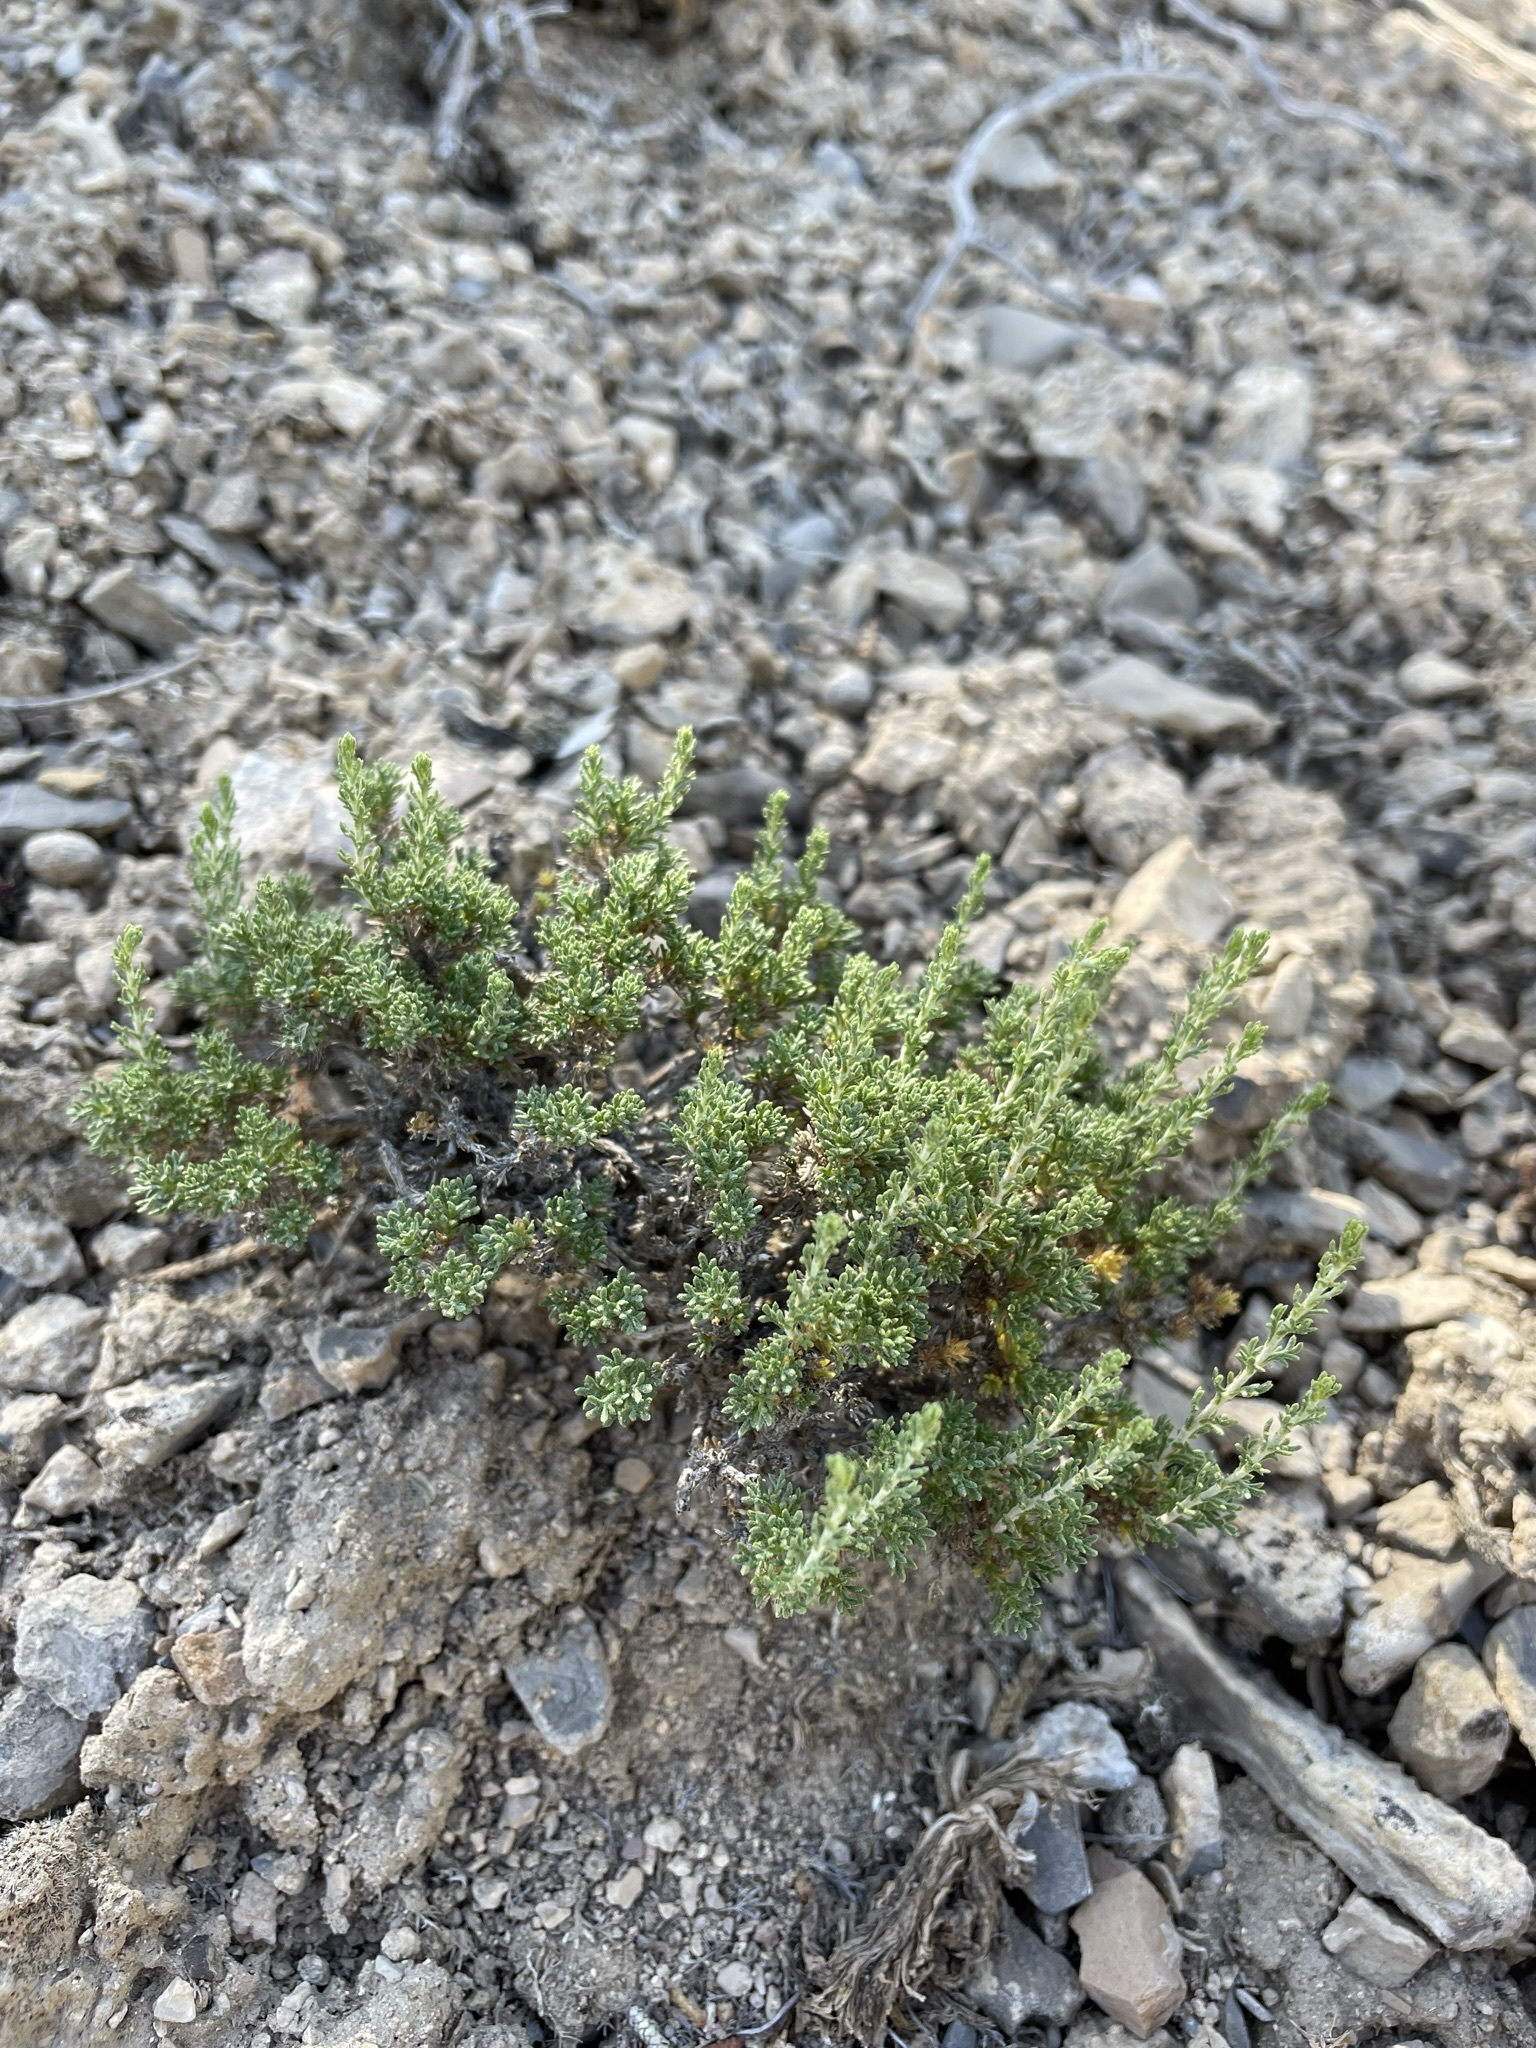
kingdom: Plantae
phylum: Tracheophyta
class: Magnoliopsida
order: Asterales
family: Asteraceae
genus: Artemisia
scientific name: Artemisia pygmaea
